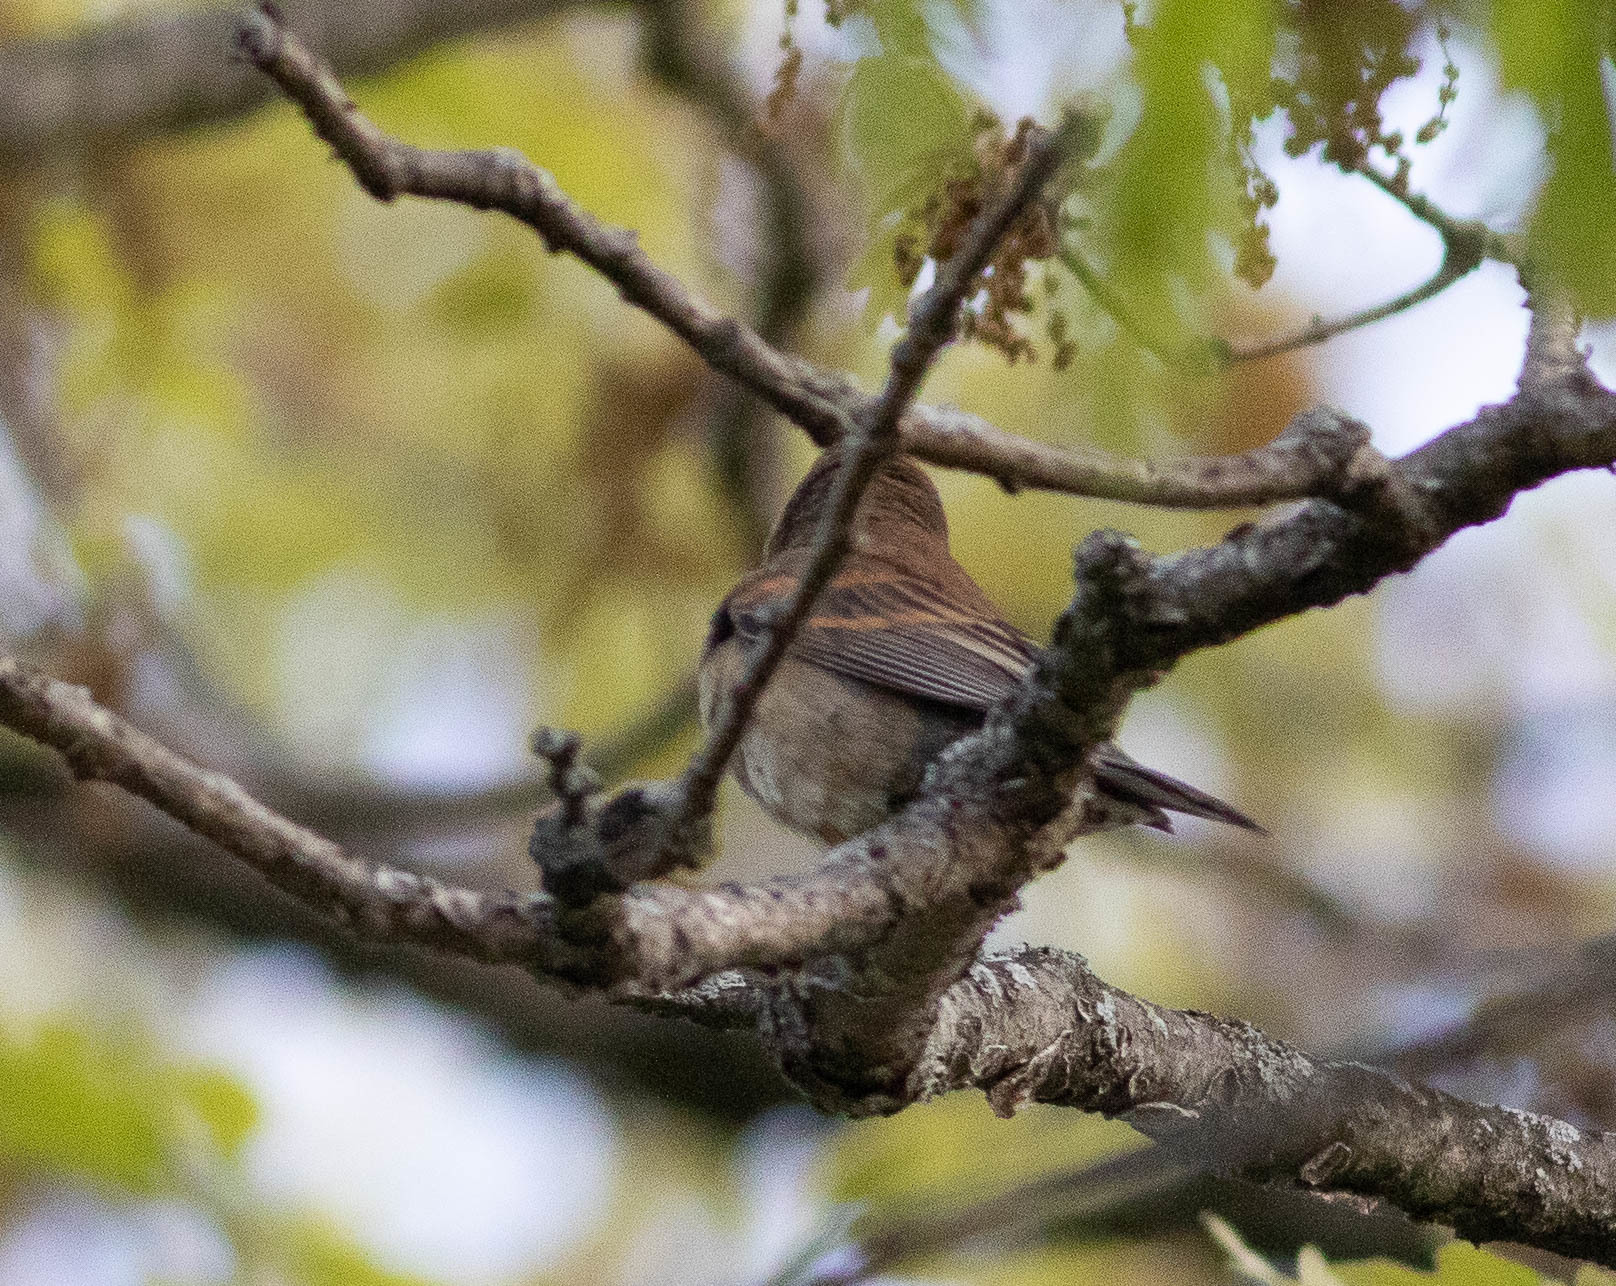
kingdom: Animalia
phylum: Chordata
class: Aves
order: Passeriformes
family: Cardinalidae
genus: Passerina
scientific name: Passerina caerulea
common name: Blue grosbeak
